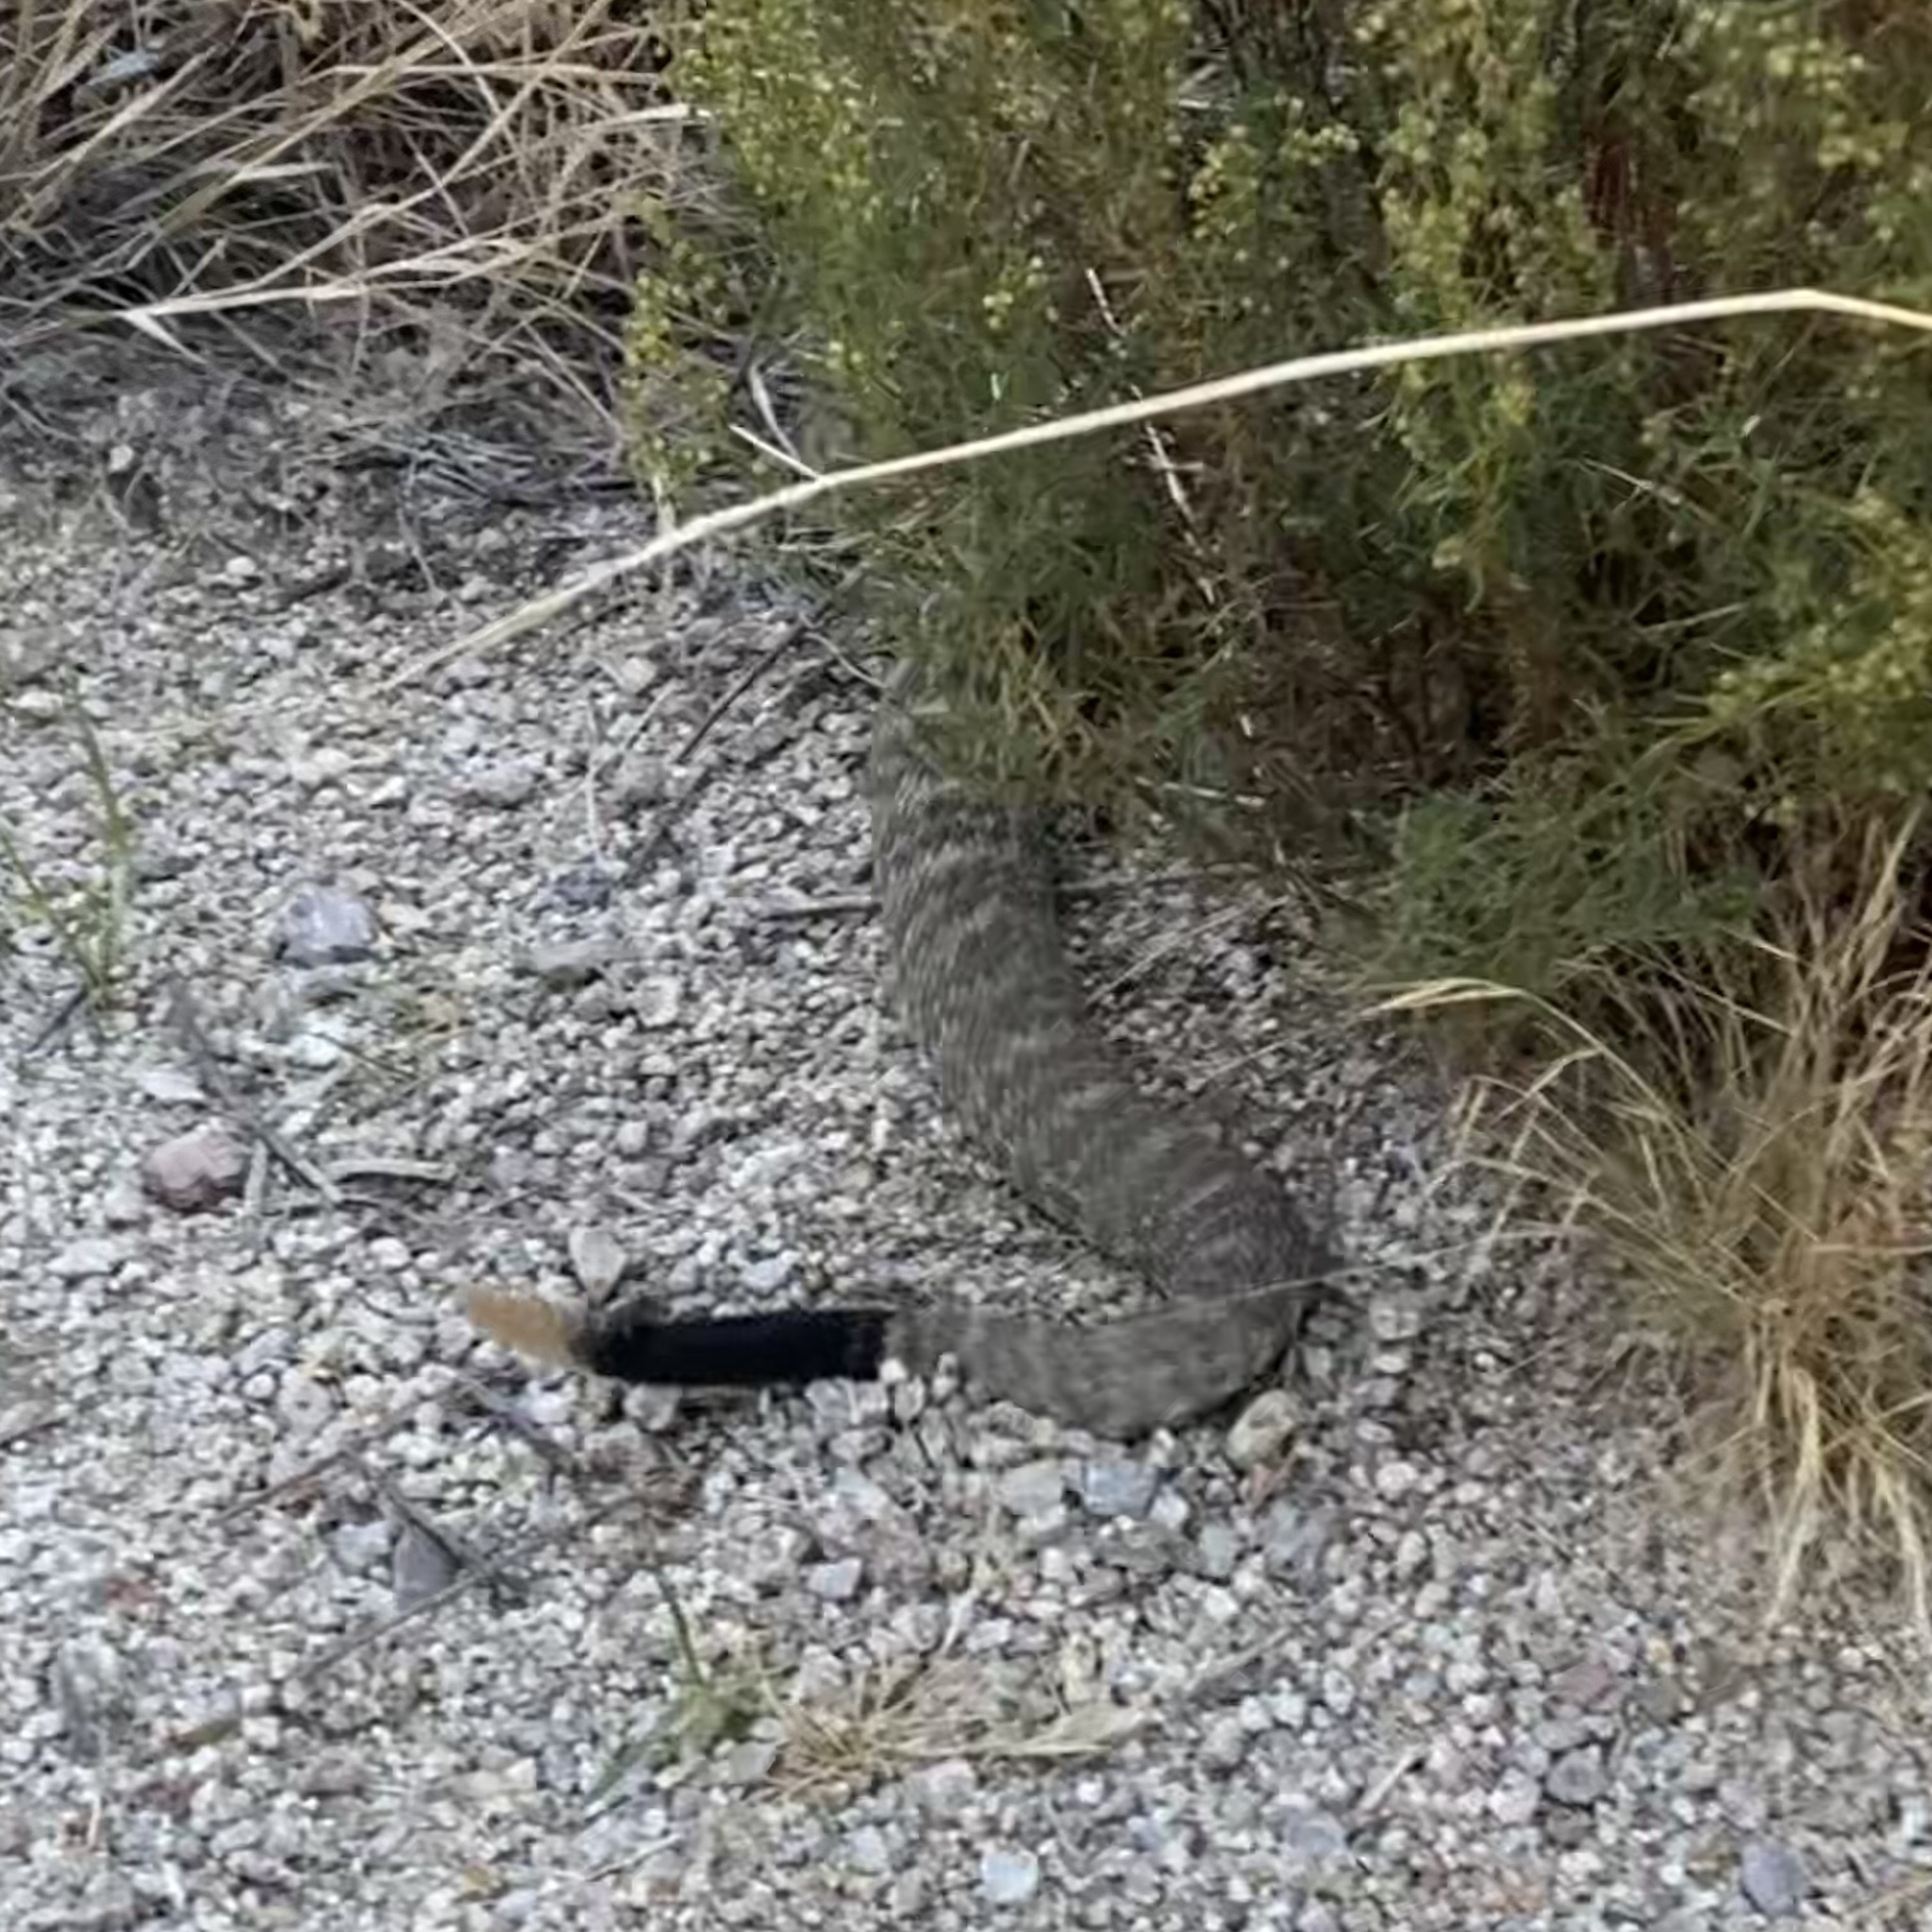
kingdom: Animalia
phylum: Chordata
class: Squamata
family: Viperidae
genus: Crotalus
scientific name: Crotalus ornatus
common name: Black-tailed rattlesnake
